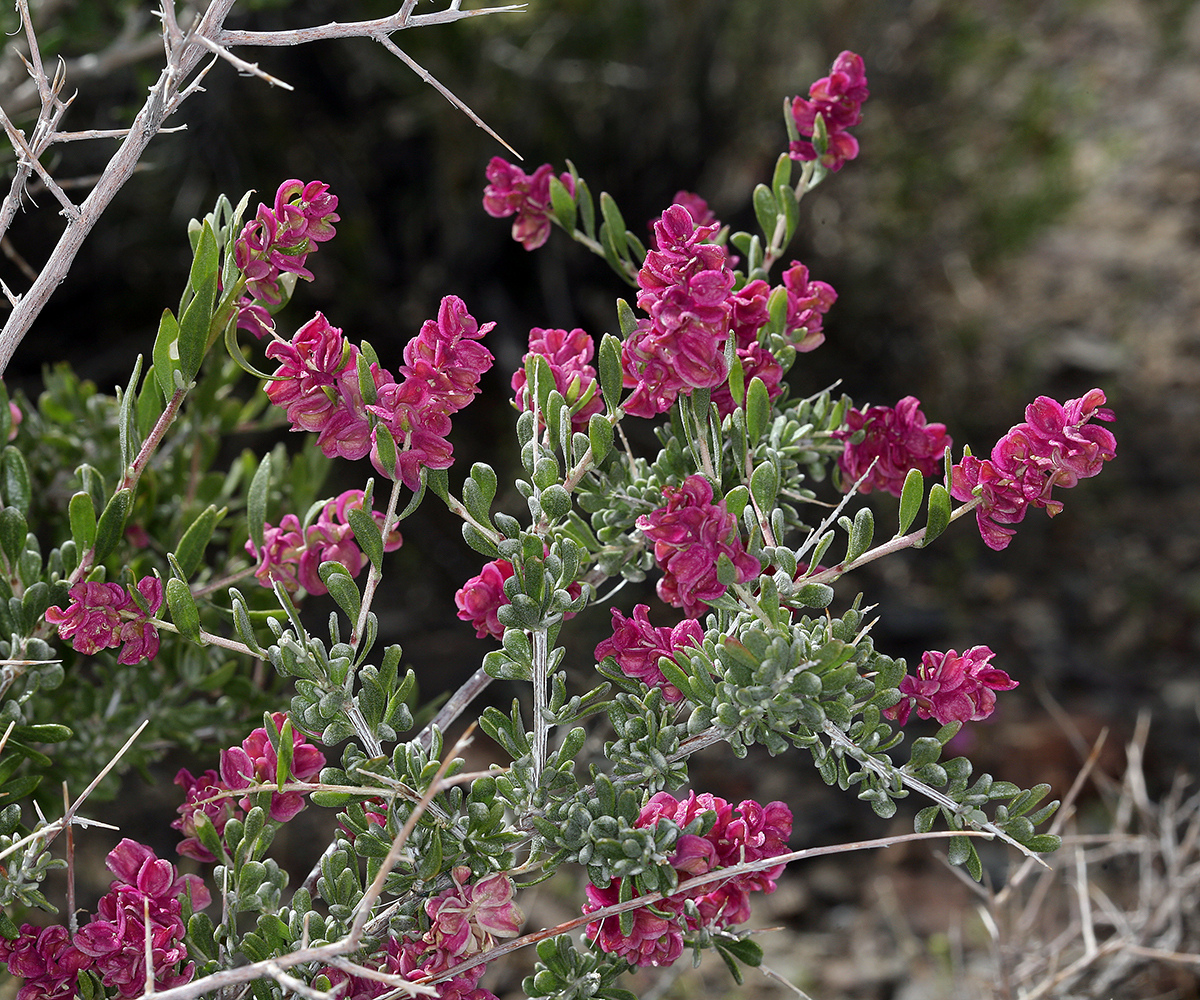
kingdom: Plantae
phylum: Tracheophyta
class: Magnoliopsida
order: Caryophyllales
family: Amaranthaceae
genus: Grayia
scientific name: Grayia spinosa
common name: Spiny hopsage
